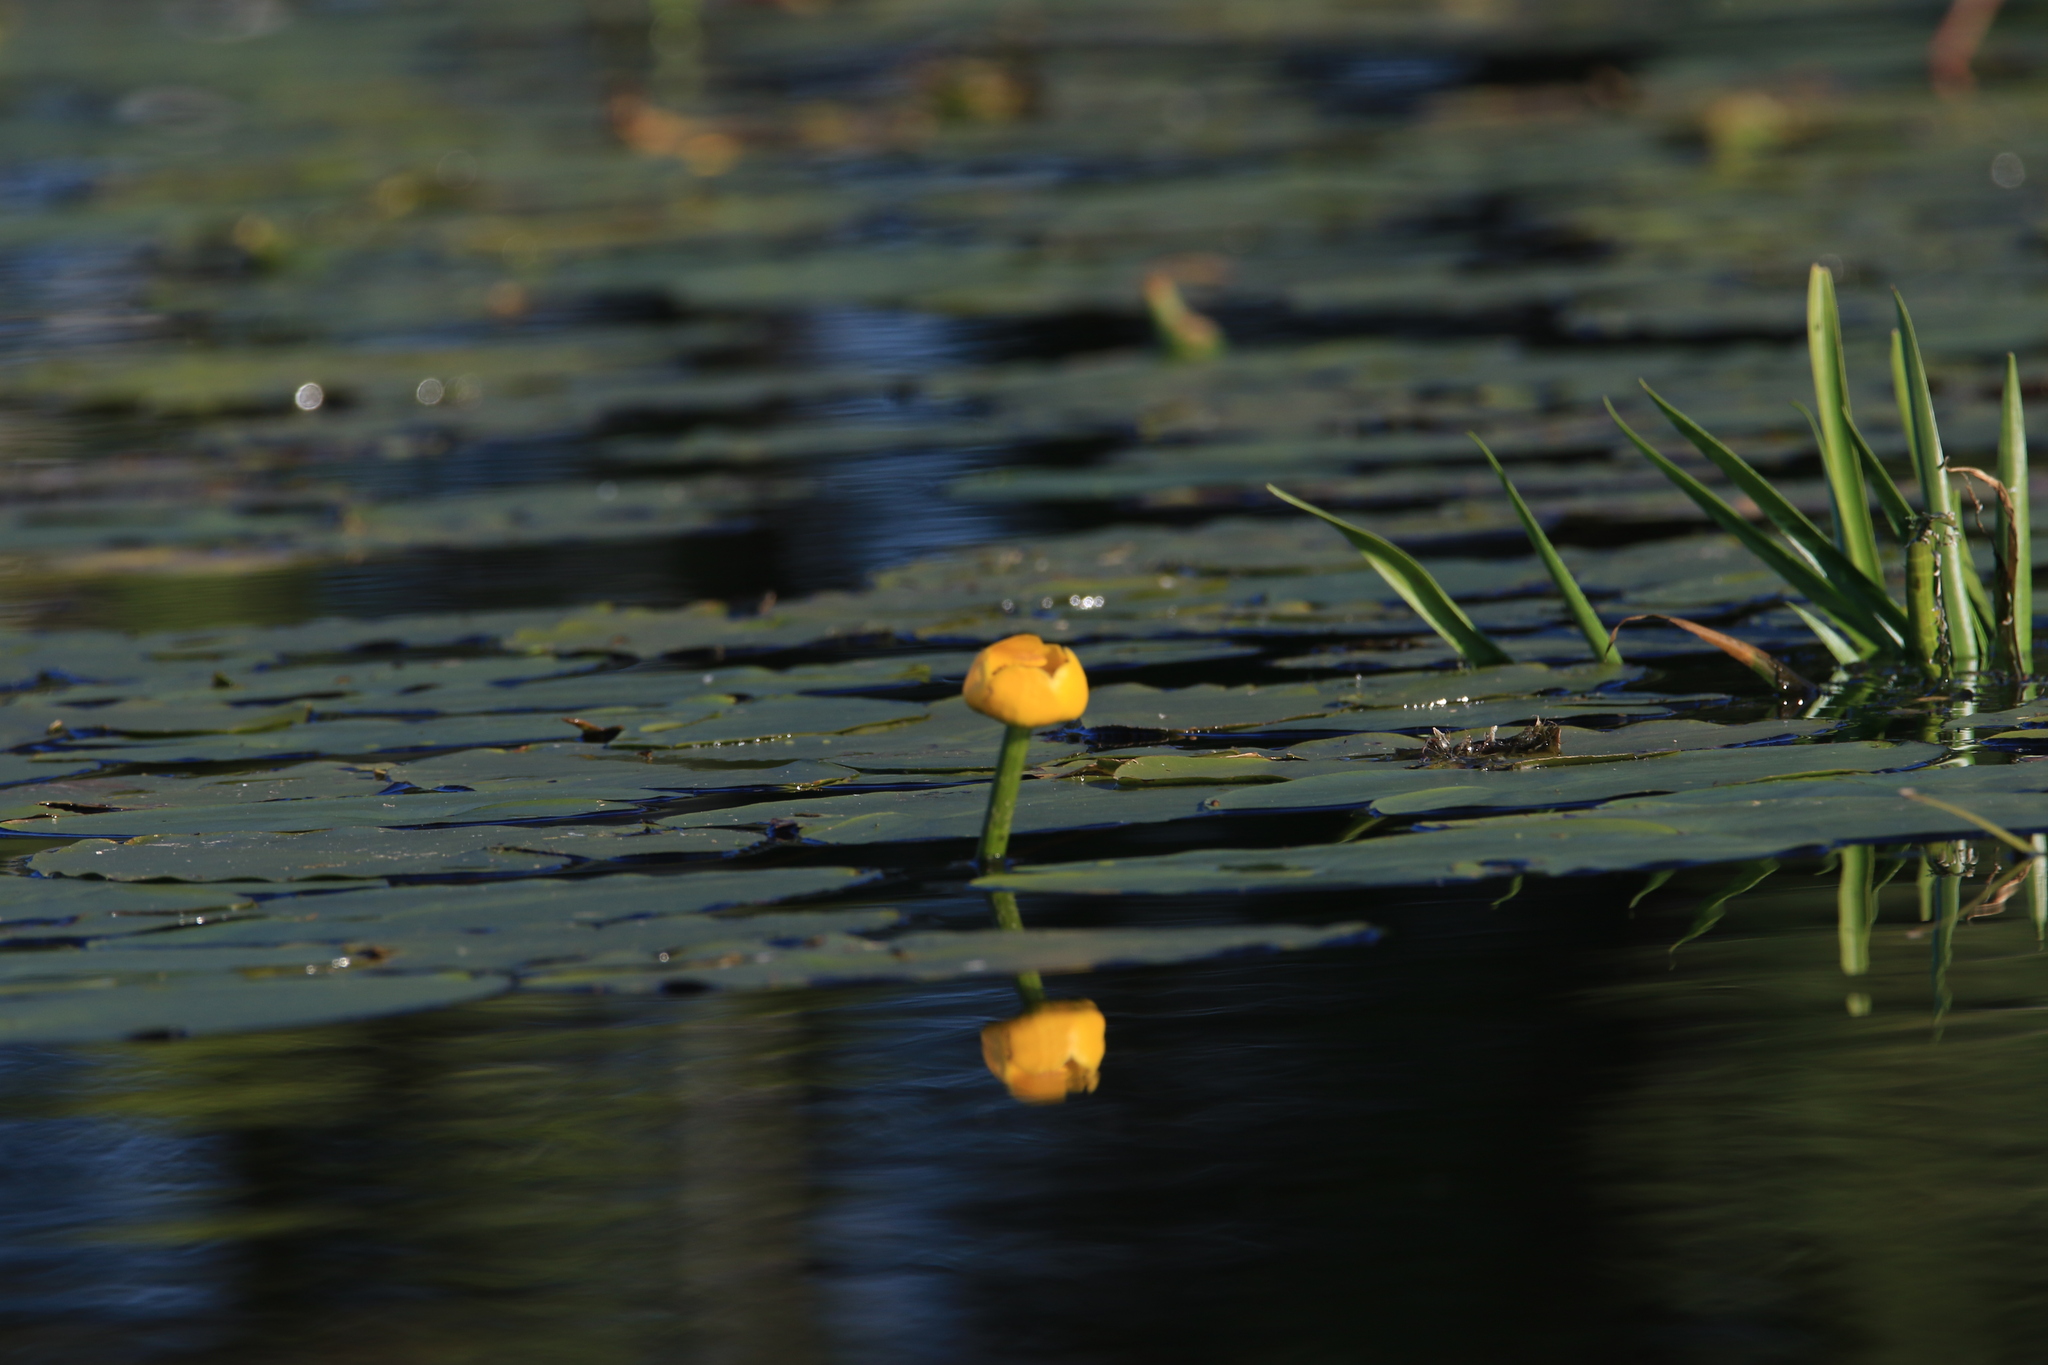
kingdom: Plantae
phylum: Tracheophyta
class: Magnoliopsida
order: Nymphaeales
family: Nymphaeaceae
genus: Nuphar
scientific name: Nuphar lutea
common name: Yellow water-lily
